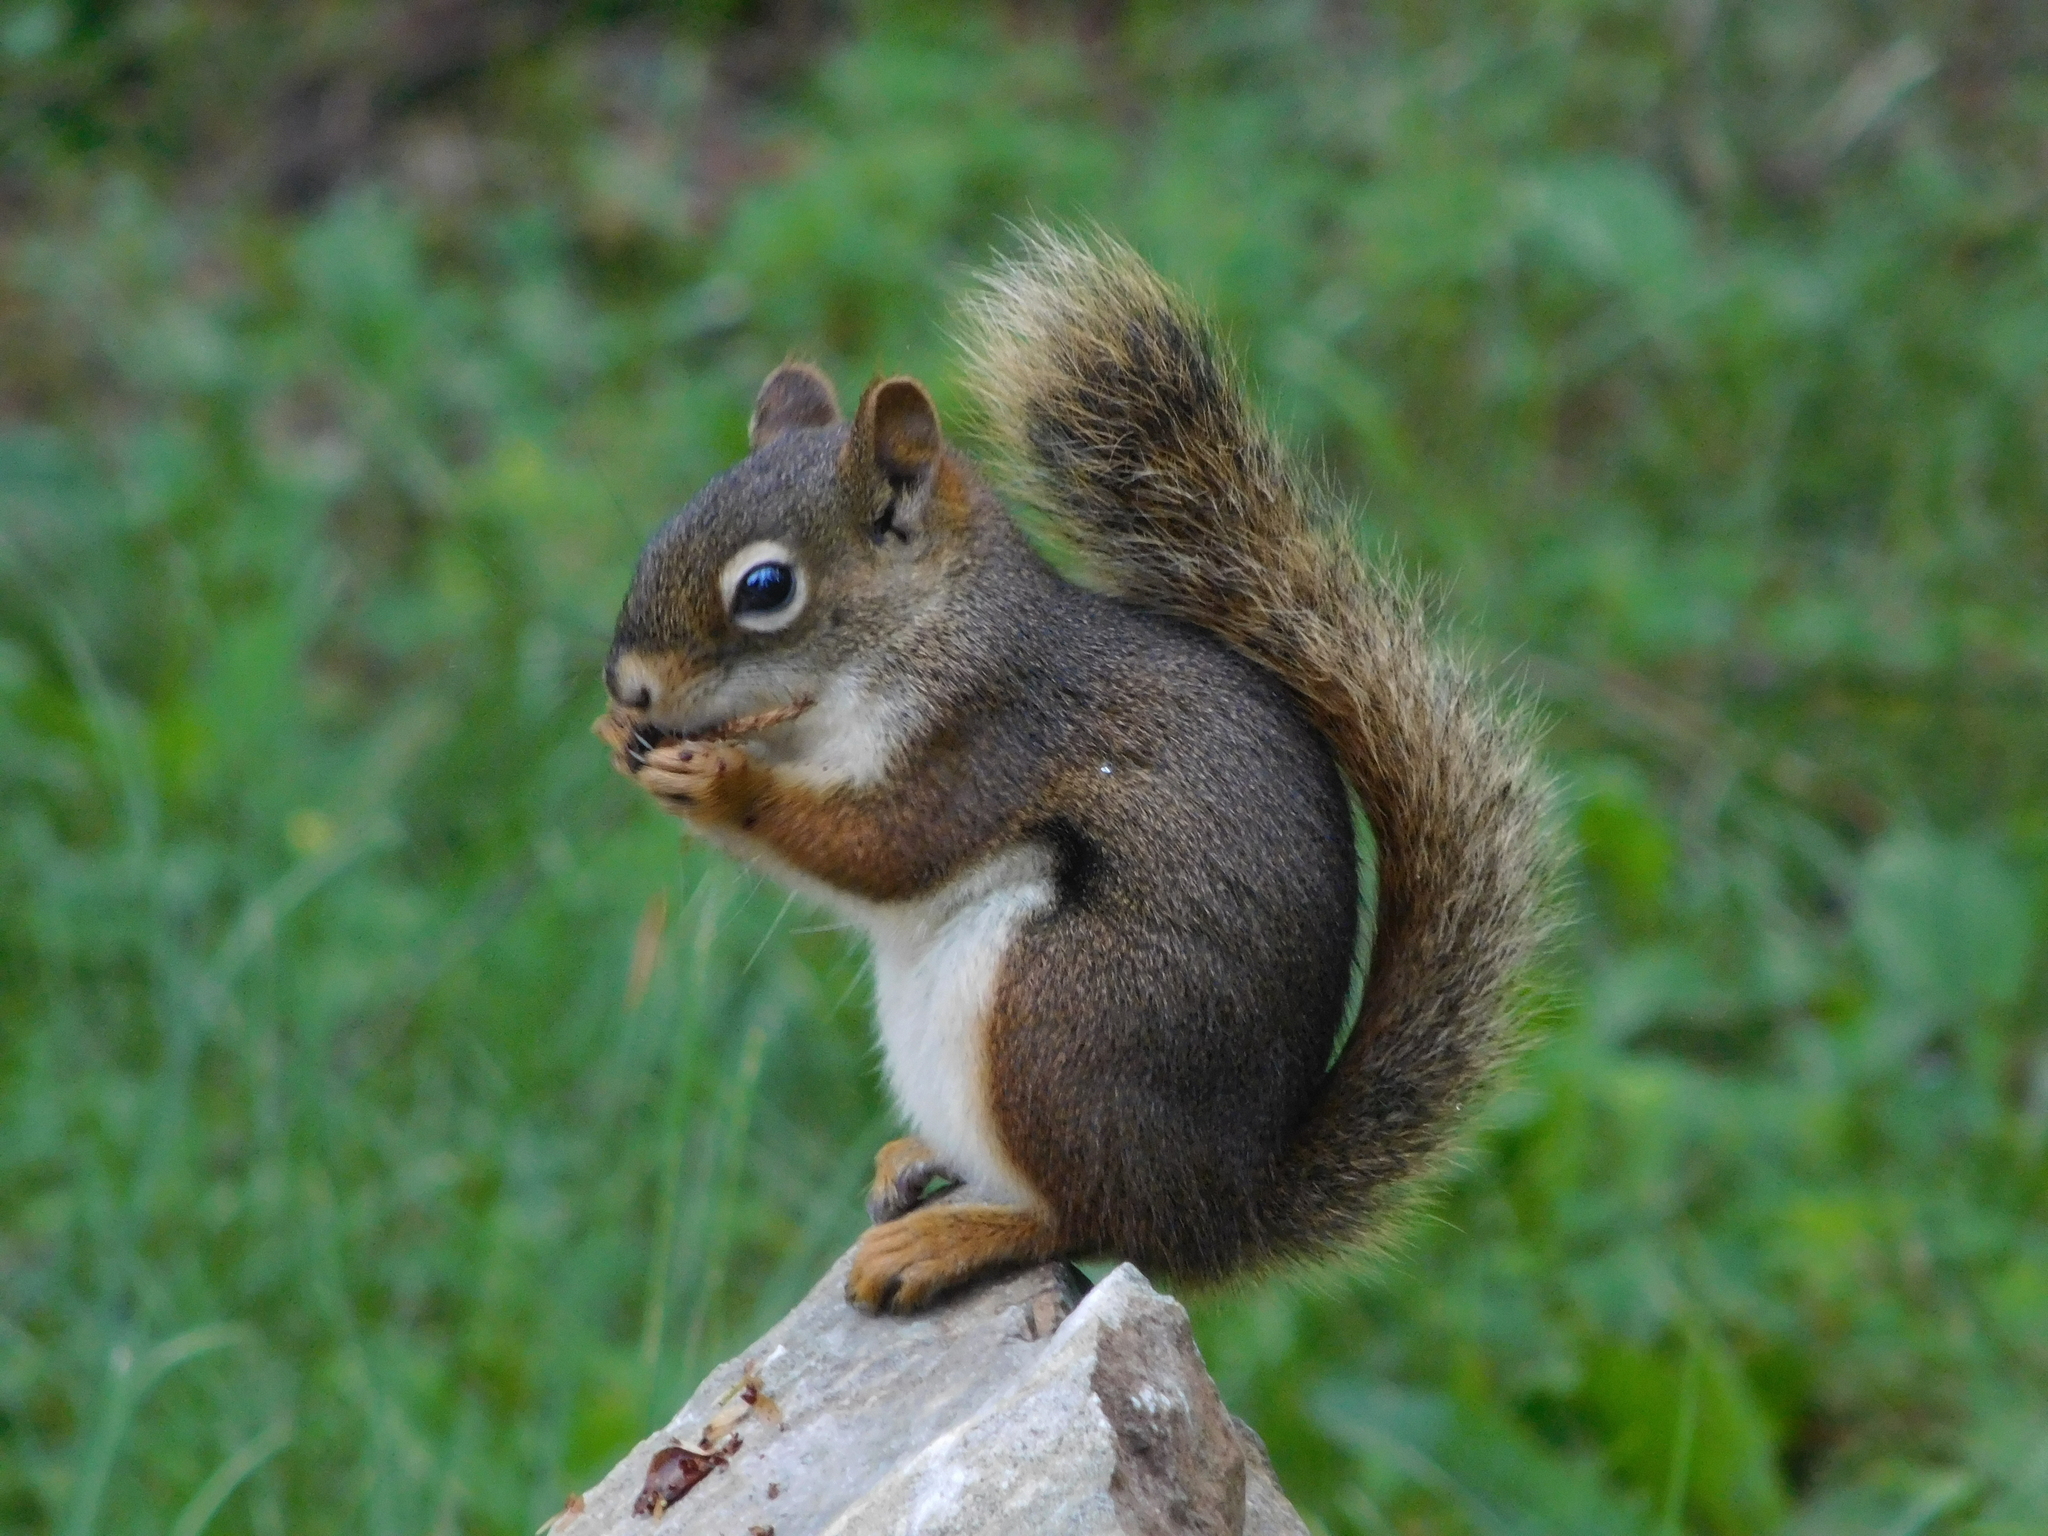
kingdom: Animalia
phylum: Chordata
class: Mammalia
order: Rodentia
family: Sciuridae
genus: Tamiasciurus
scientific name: Tamiasciurus hudsonicus
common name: Red squirrel
